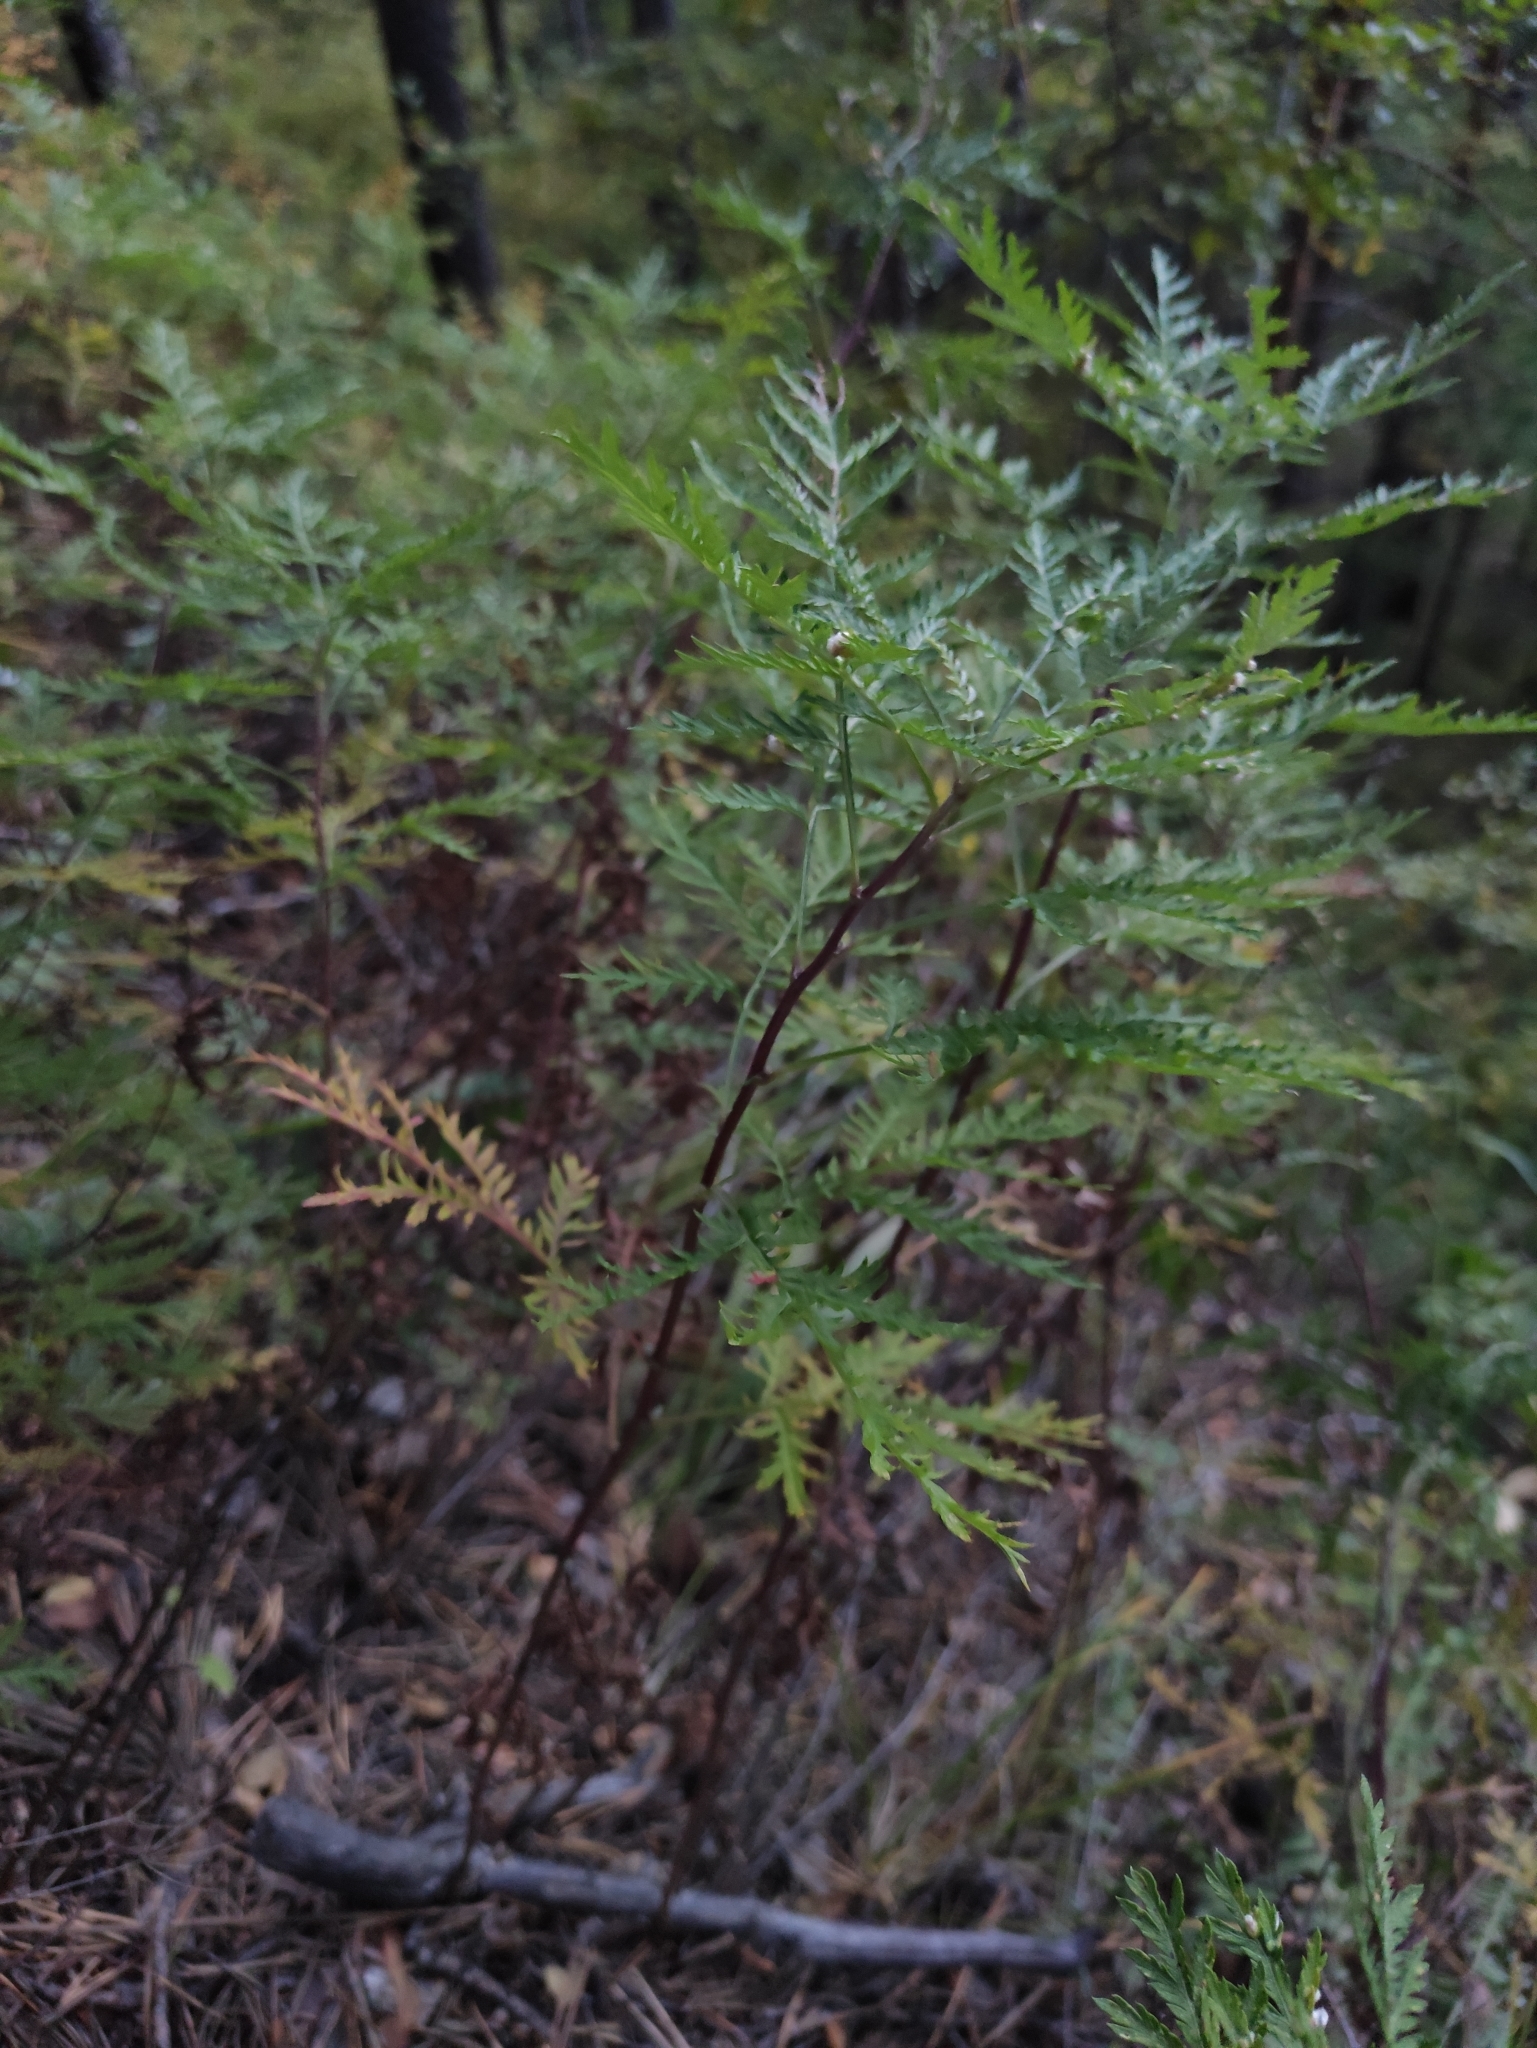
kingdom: Plantae
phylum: Tracheophyta
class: Magnoliopsida
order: Asterales
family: Asteraceae
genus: Artemisia
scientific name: Artemisia gmelinii
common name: Gmelin's wormwood
